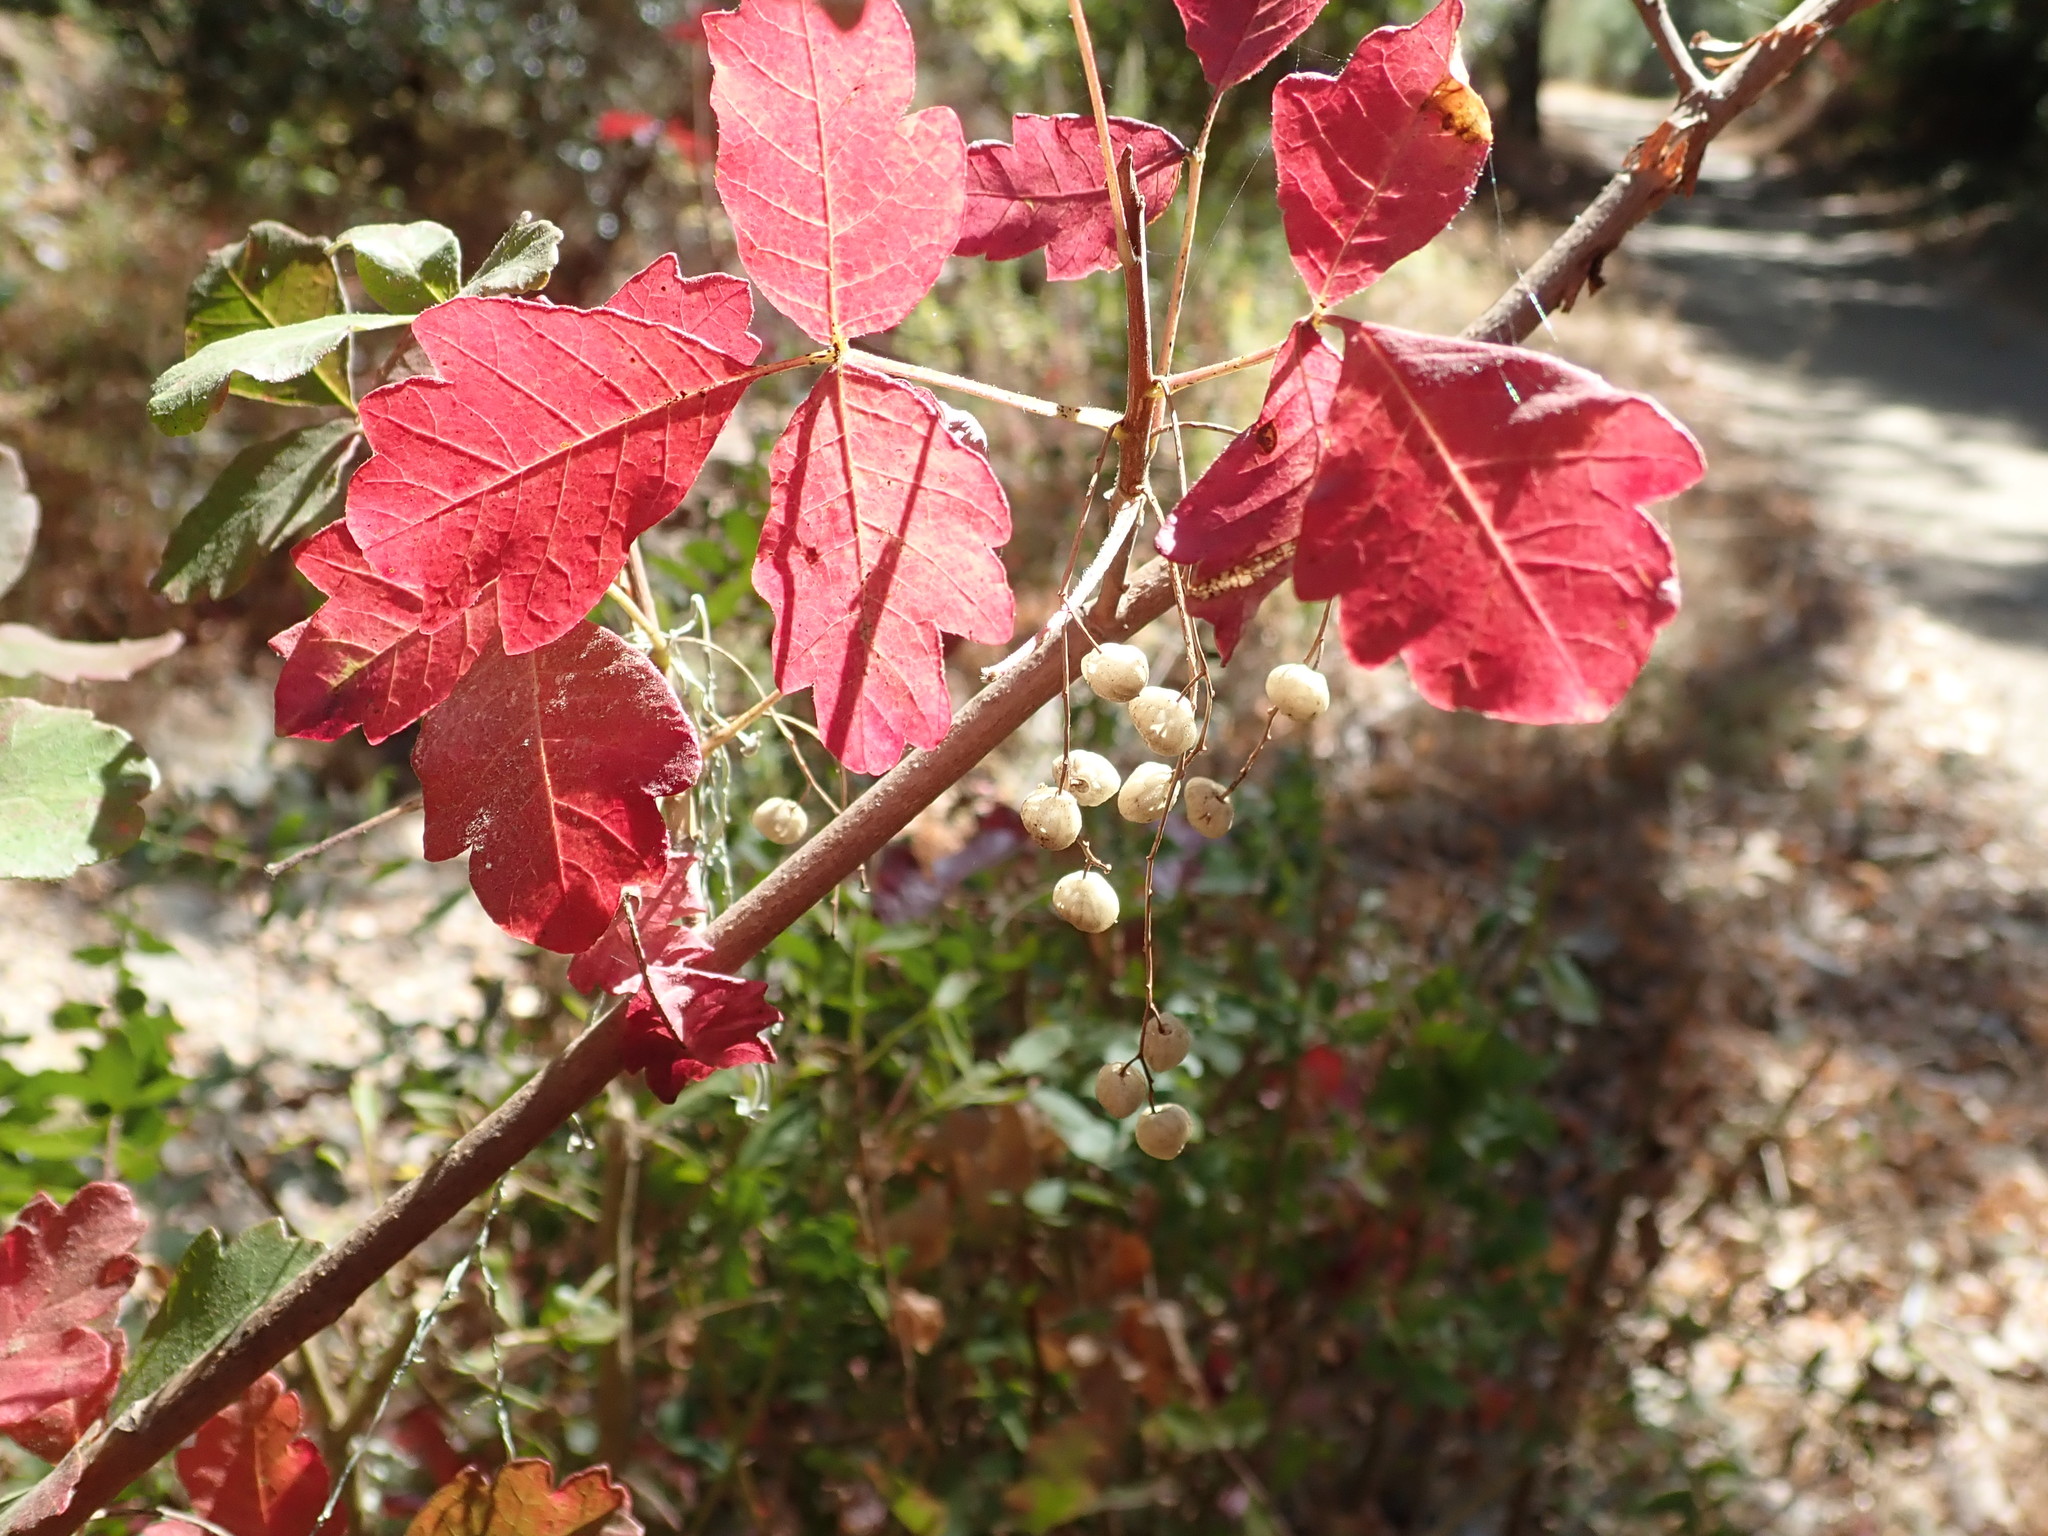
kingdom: Plantae
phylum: Tracheophyta
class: Magnoliopsida
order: Sapindales
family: Anacardiaceae
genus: Toxicodendron
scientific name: Toxicodendron diversilobum
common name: Pacific poison-oak
